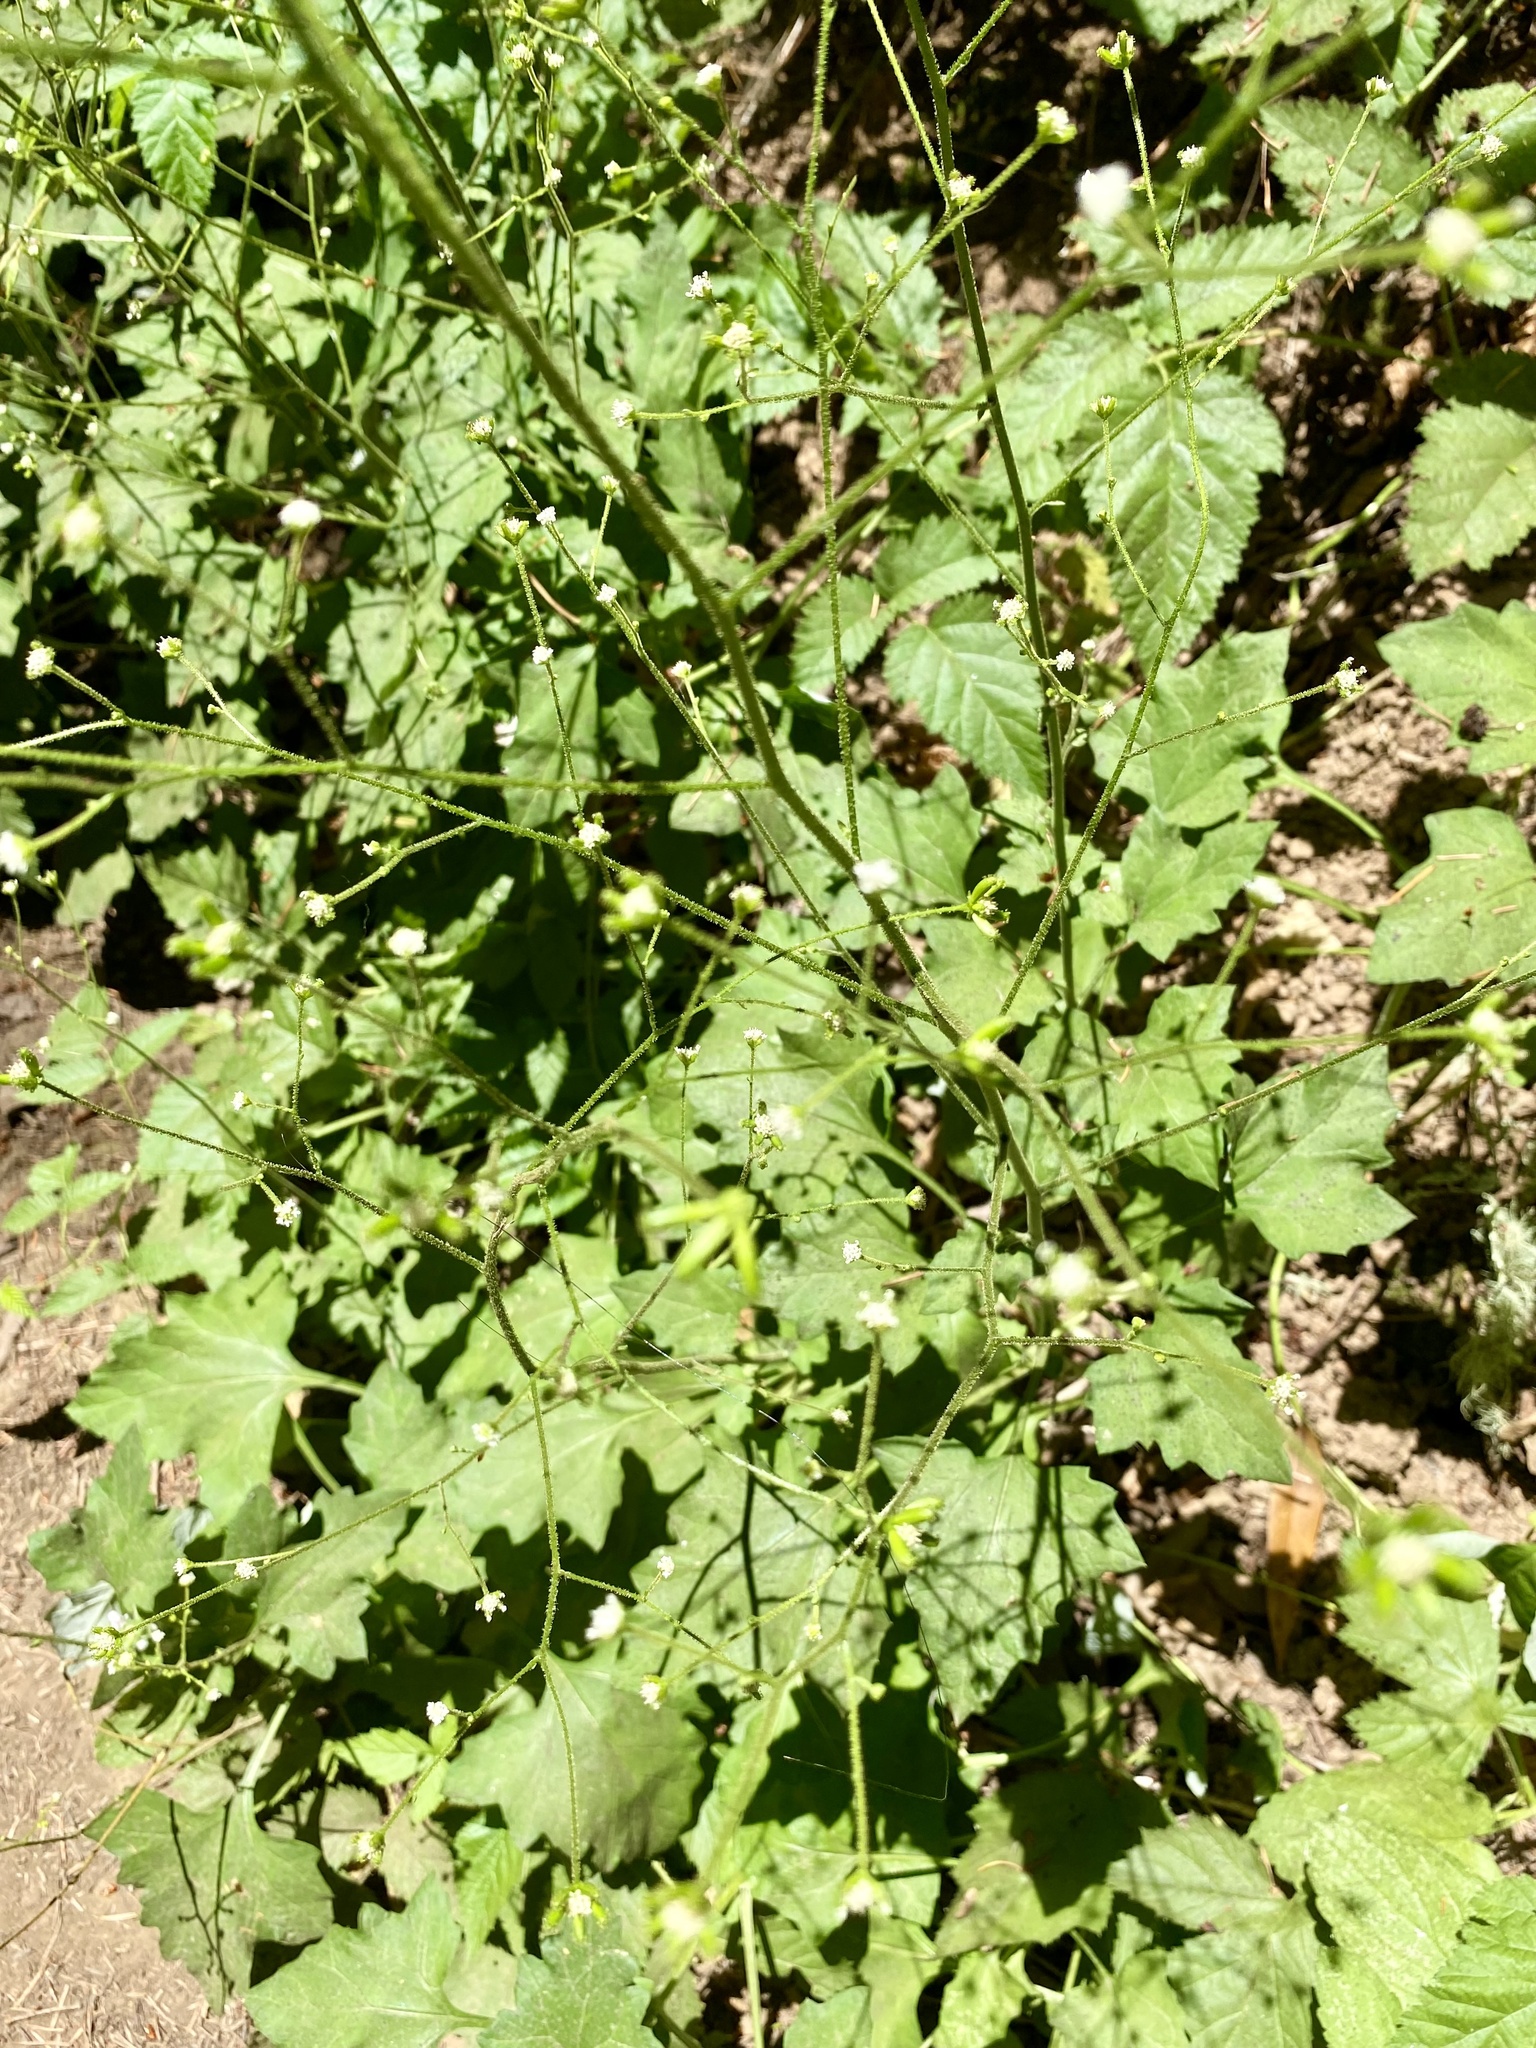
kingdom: Plantae
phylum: Tracheophyta
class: Magnoliopsida
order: Asterales
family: Asteraceae
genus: Adenocaulon
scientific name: Adenocaulon bicolor
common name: Trailplant
